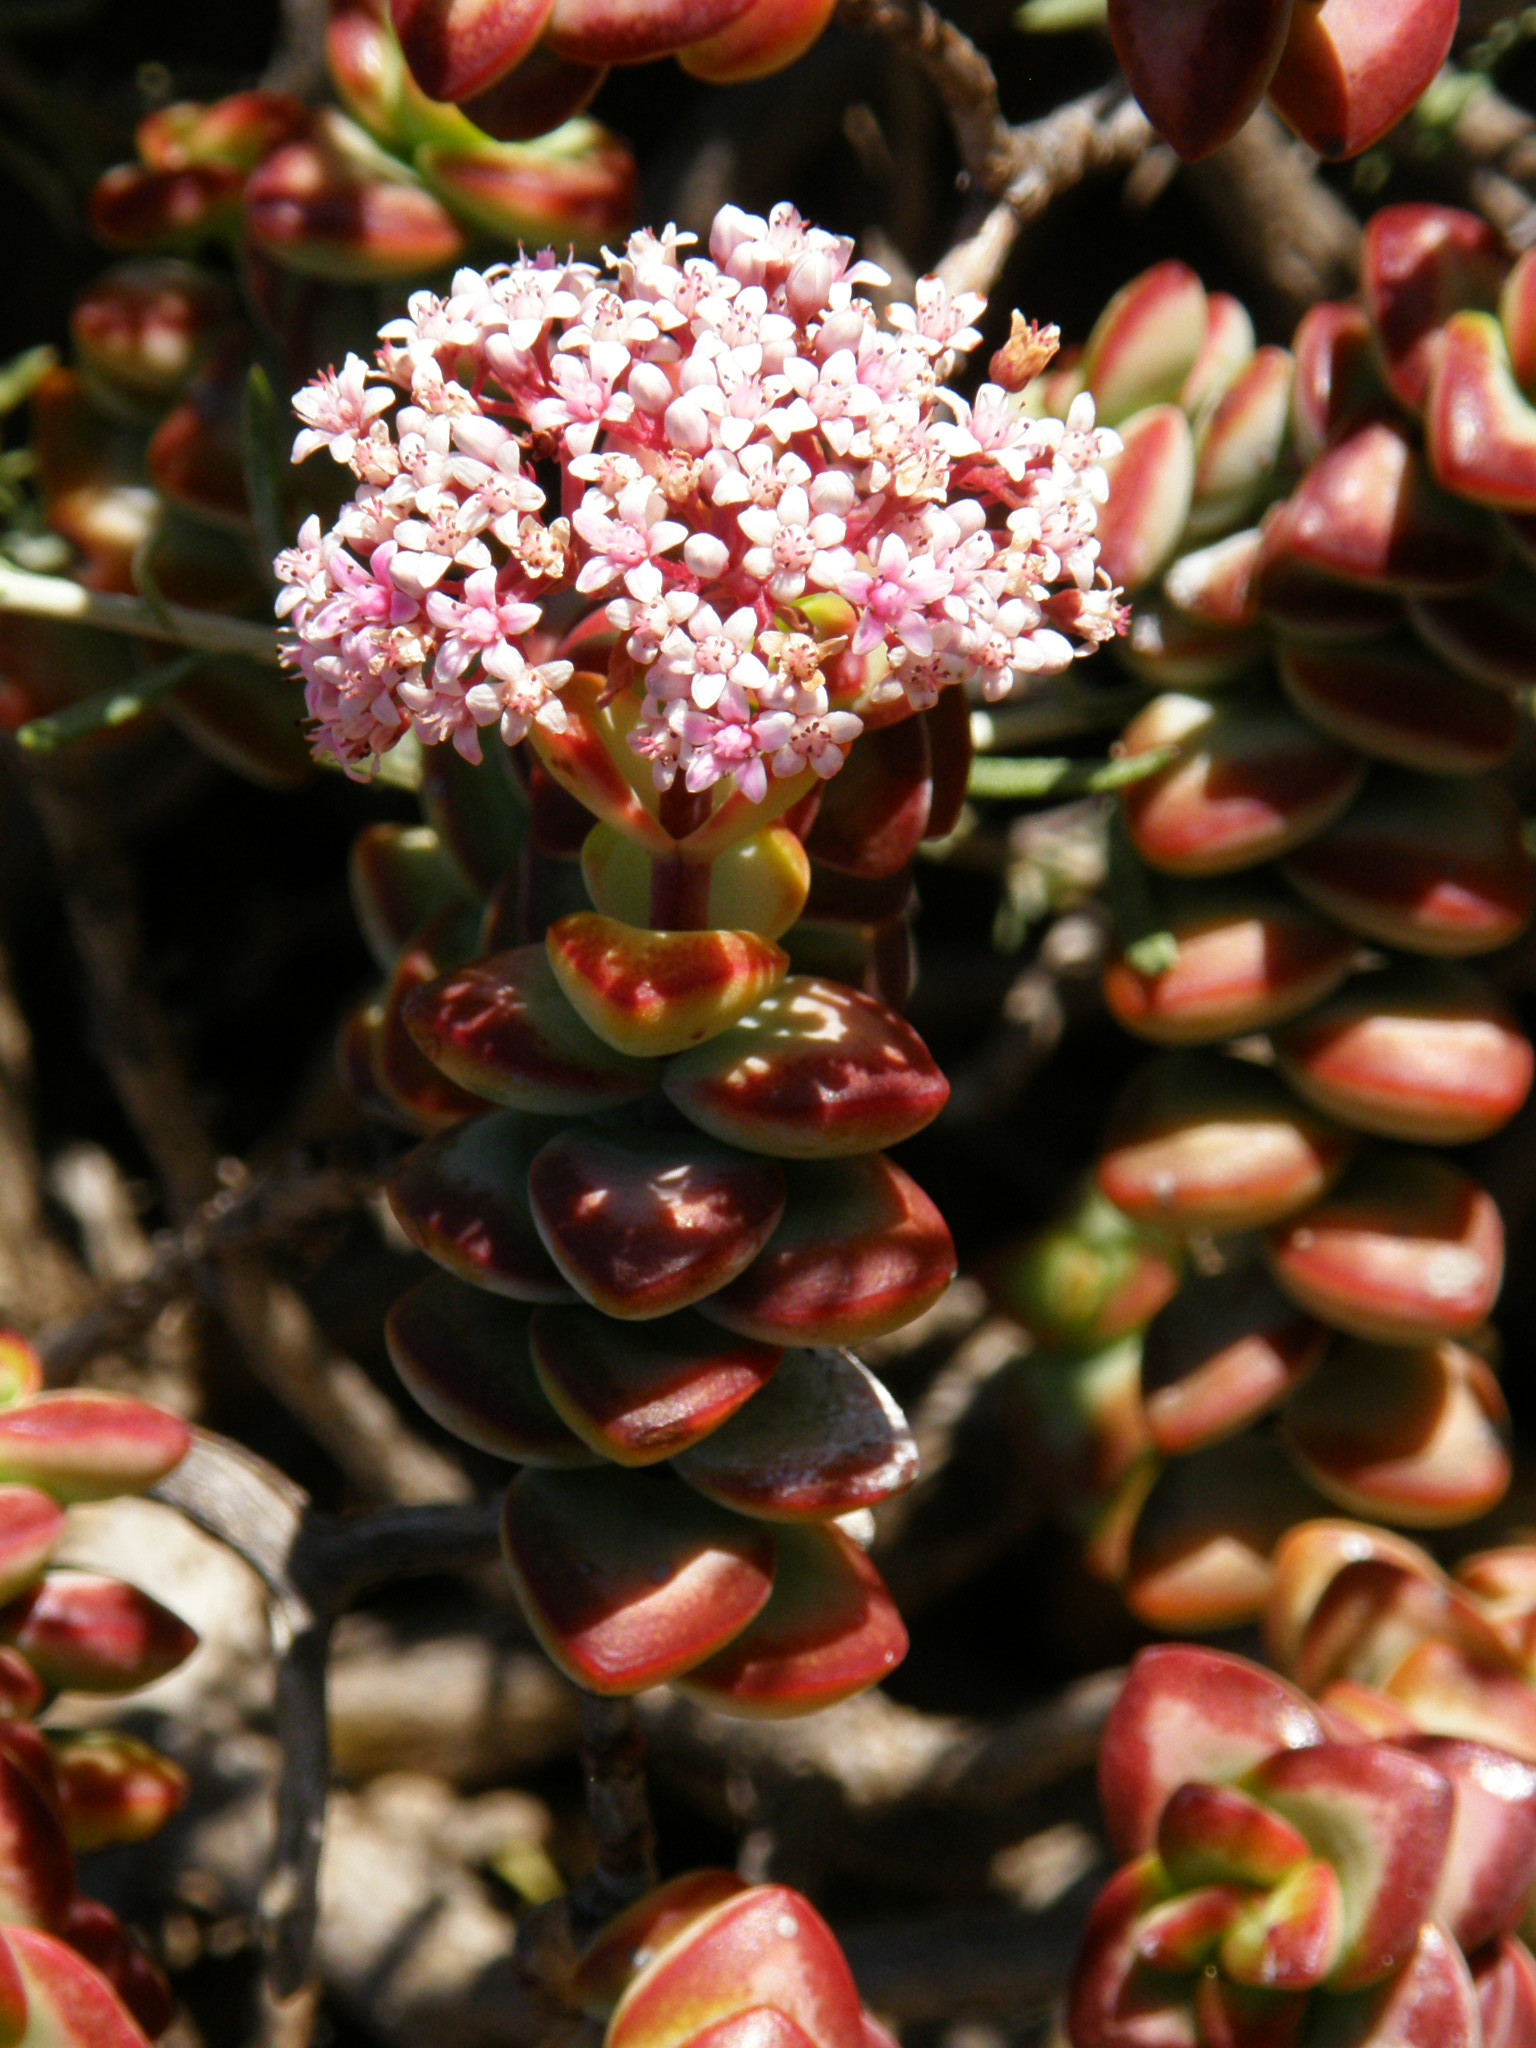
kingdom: Plantae
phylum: Tracheophyta
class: Magnoliopsida
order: Saxifragales
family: Crassulaceae
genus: Crassula
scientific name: Crassula rupestris
